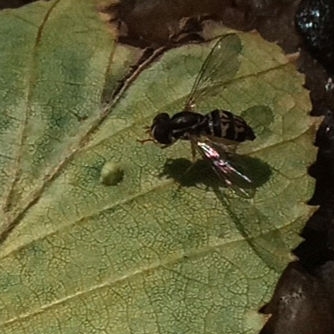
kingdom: Animalia
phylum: Arthropoda
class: Insecta
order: Diptera
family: Syrphidae
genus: Toxomerus
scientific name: Toxomerus geminatus
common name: Eastern calligrapher
